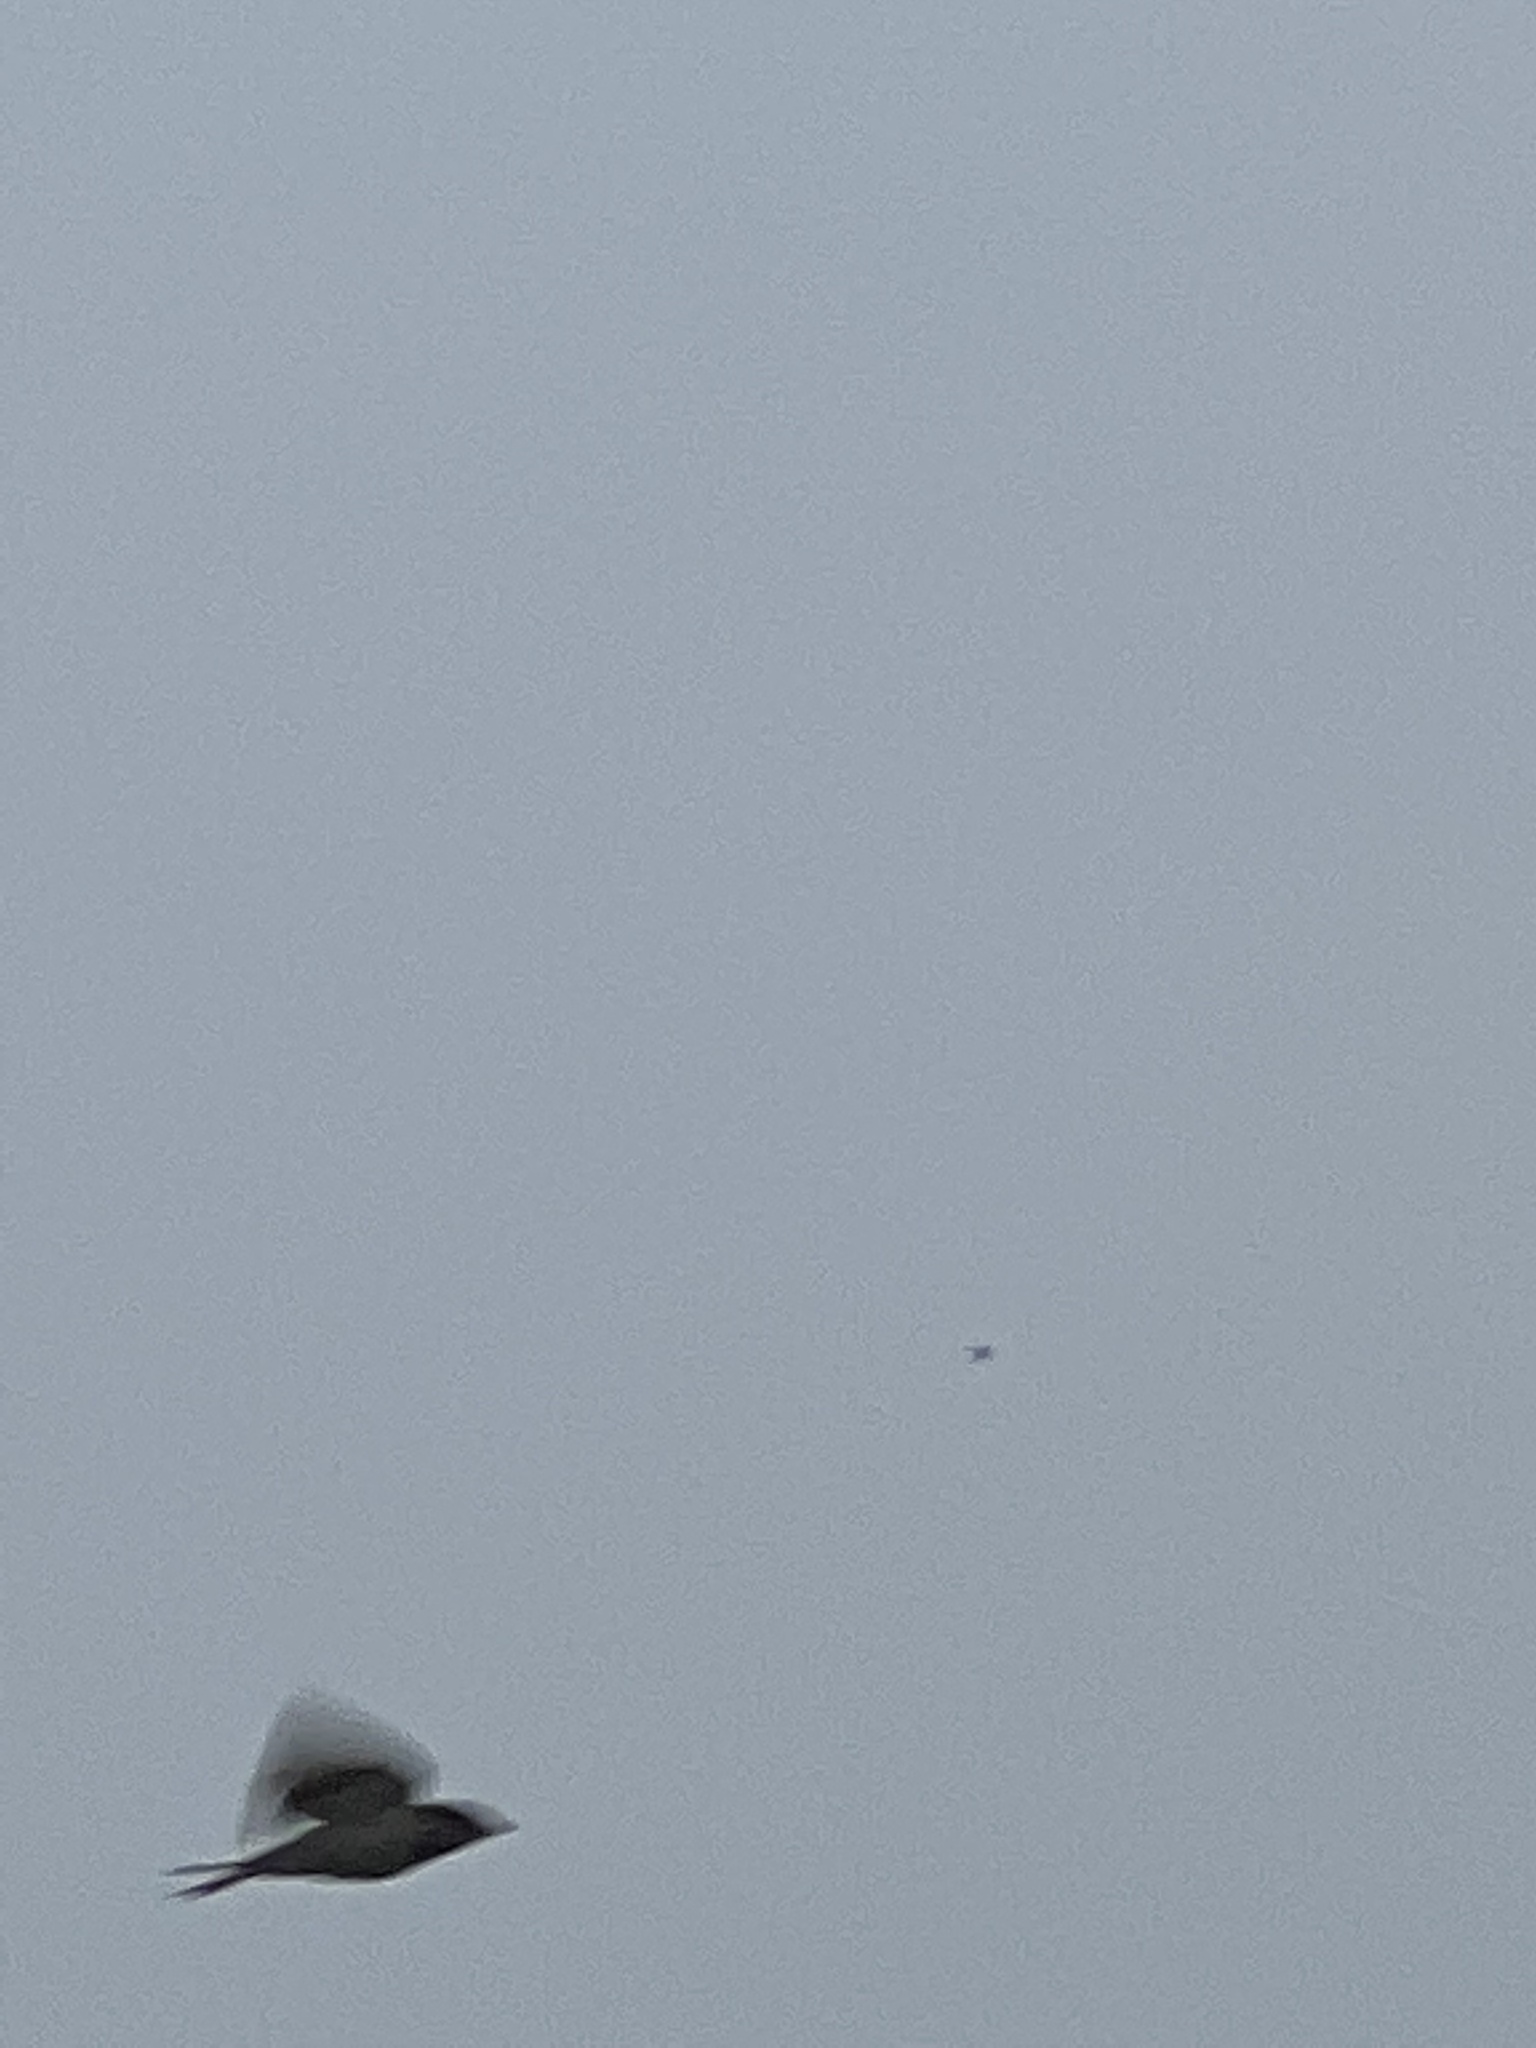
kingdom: Animalia
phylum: Chordata
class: Aves
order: Passeriformes
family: Passeridae
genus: Passer
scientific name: Passer domesticus
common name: House sparrow
